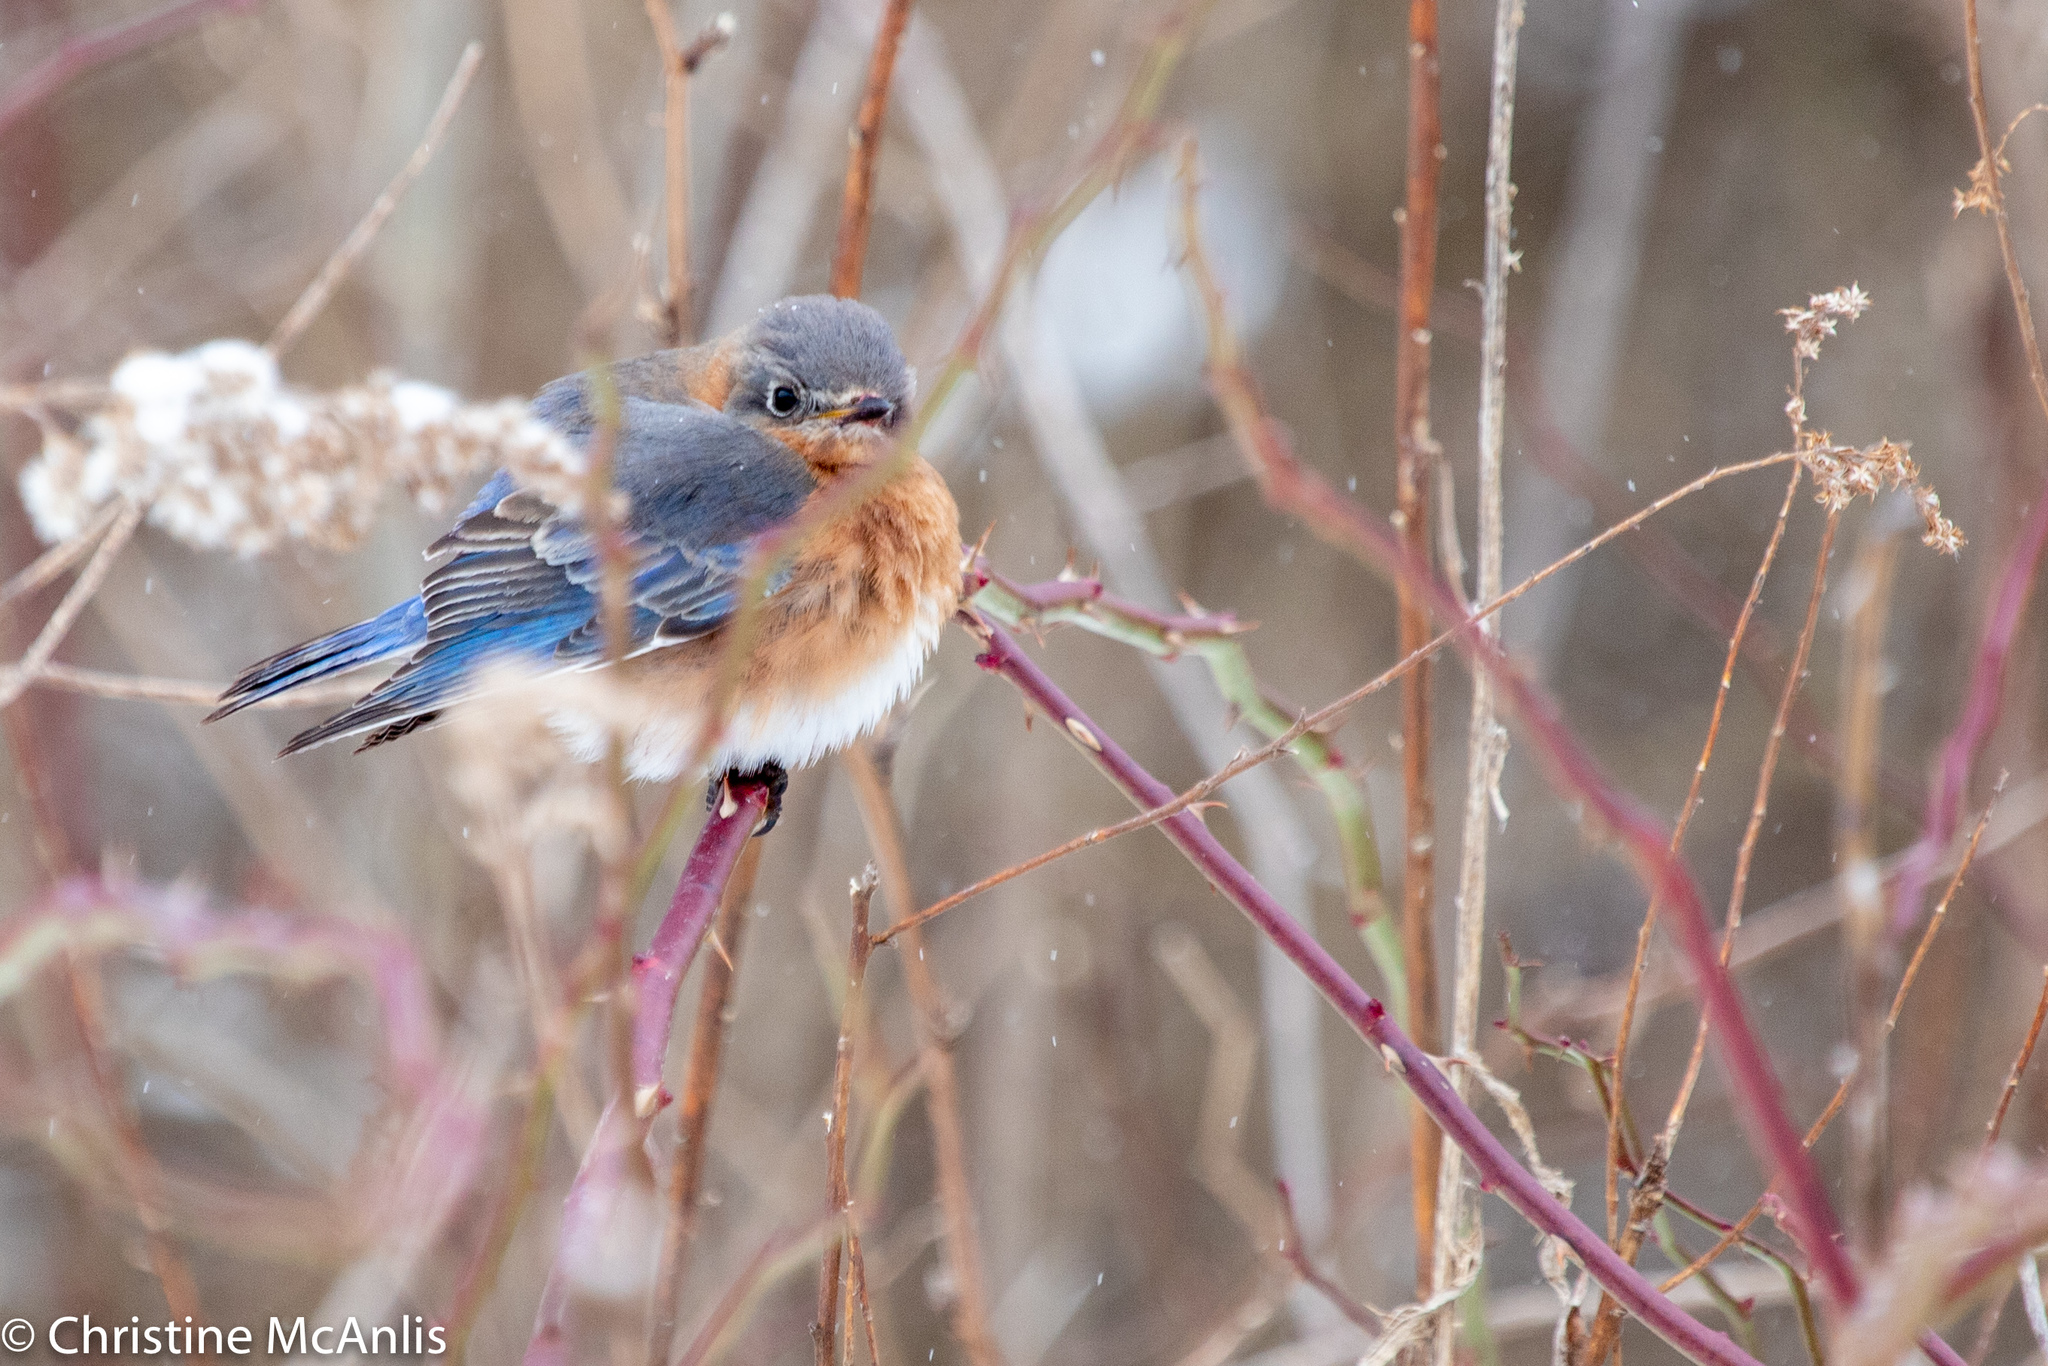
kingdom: Animalia
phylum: Chordata
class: Aves
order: Passeriformes
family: Turdidae
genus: Sialia
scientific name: Sialia sialis
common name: Eastern bluebird
